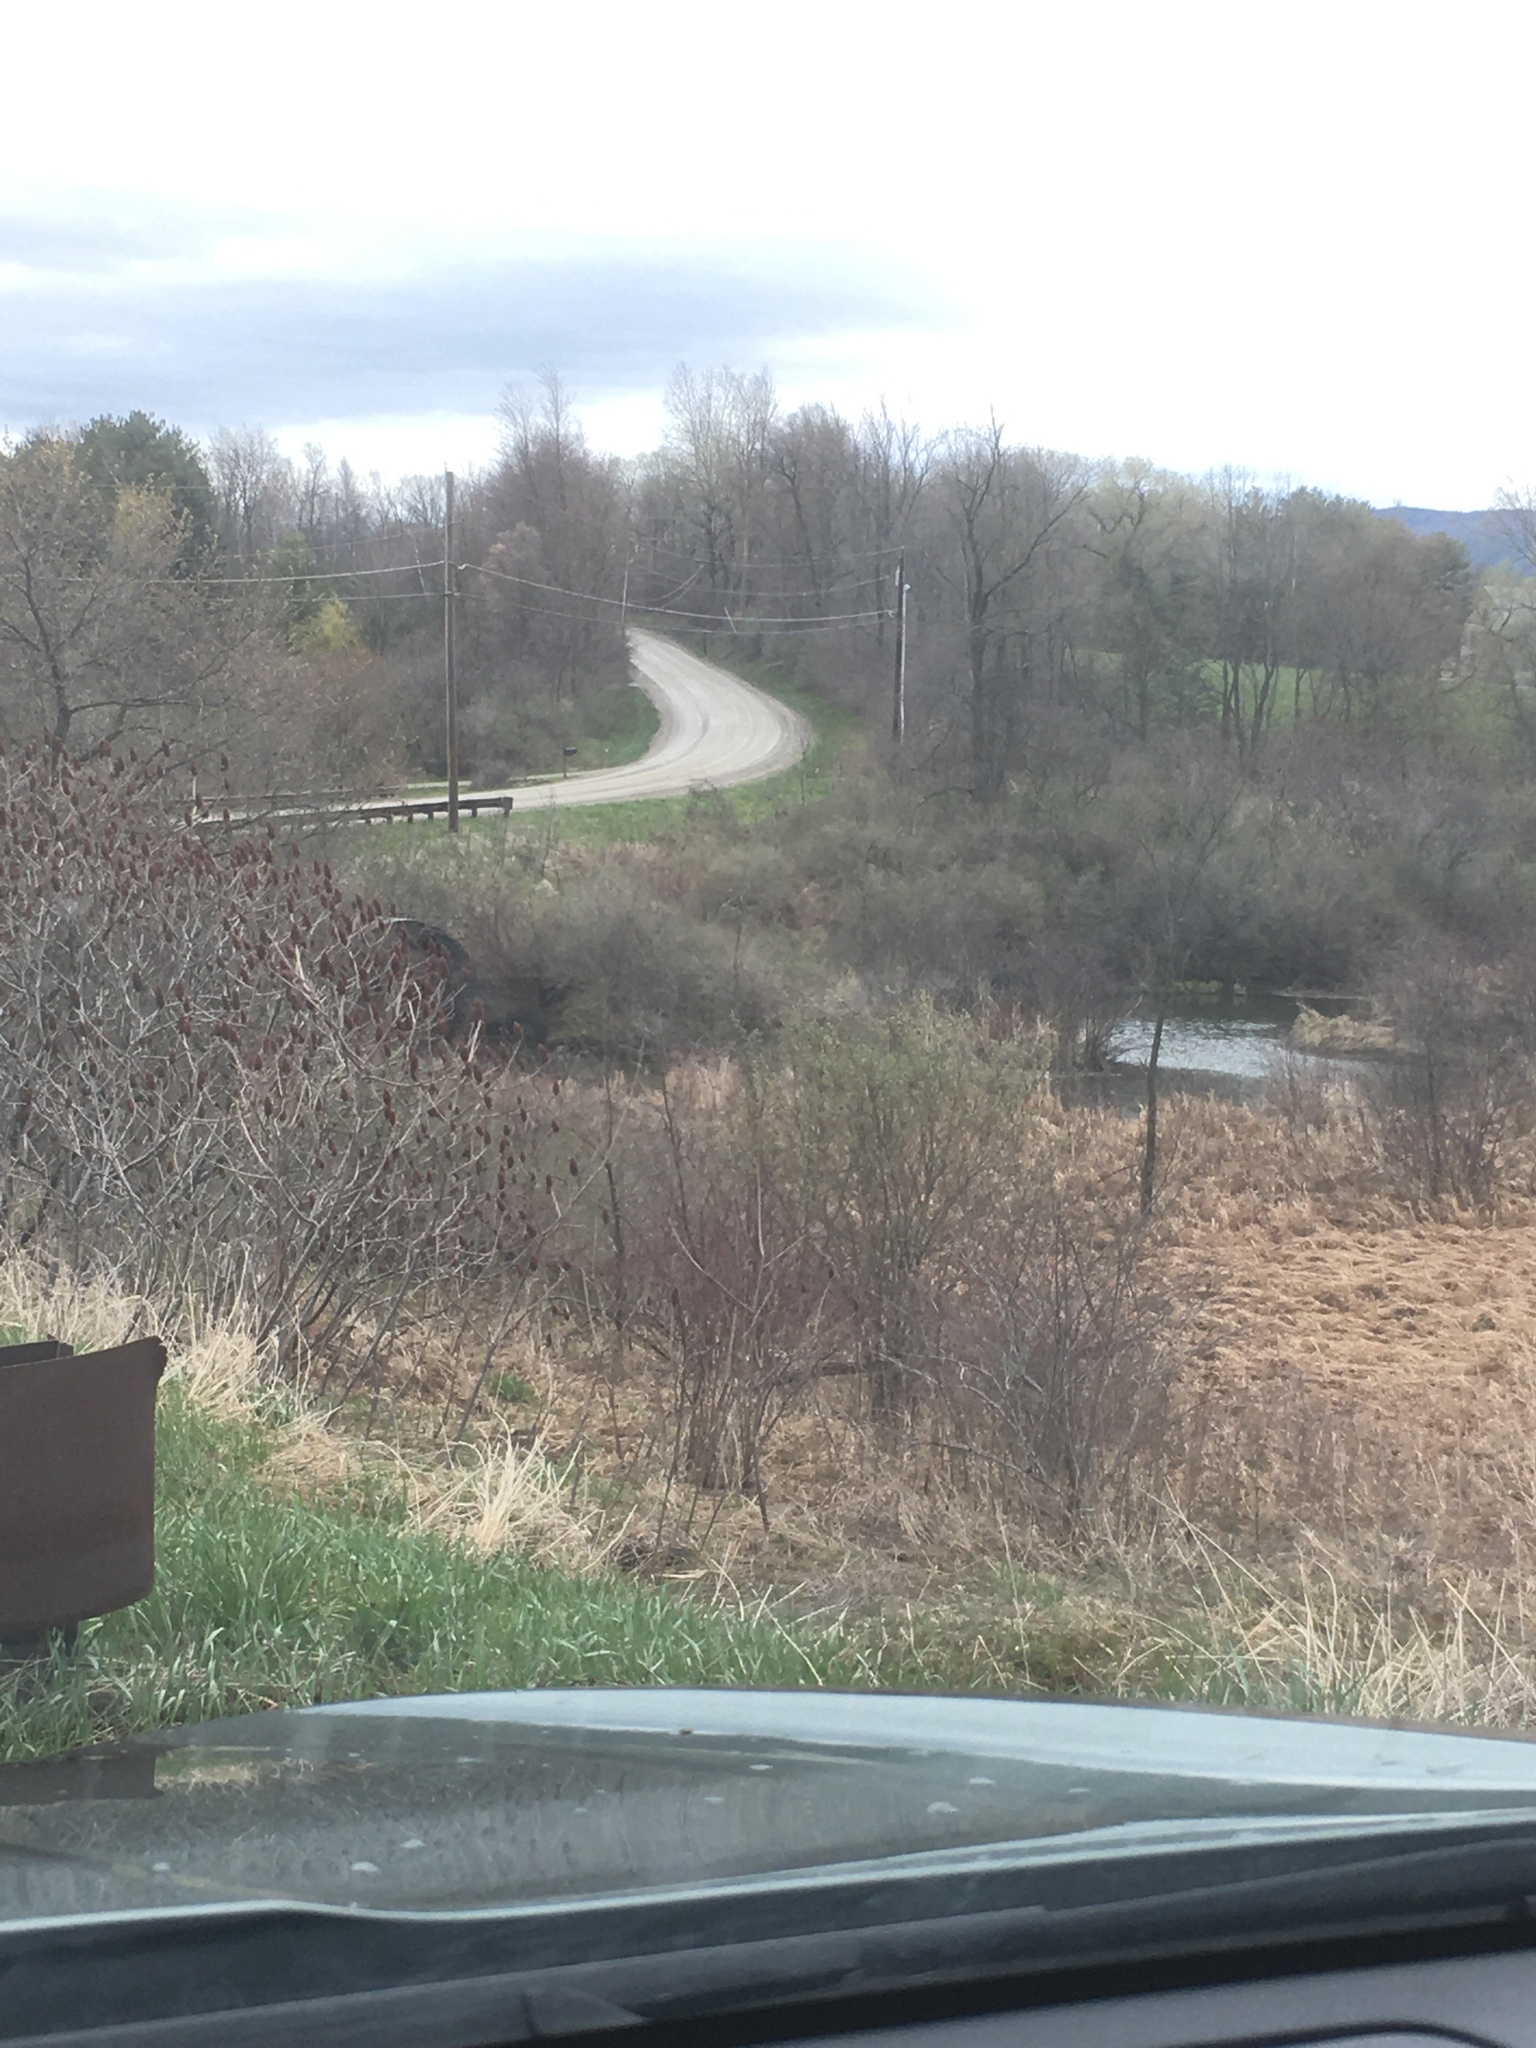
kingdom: Plantae
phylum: Tracheophyta
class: Magnoliopsida
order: Sapindales
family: Anacardiaceae
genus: Rhus
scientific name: Rhus typhina
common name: Staghorn sumac
